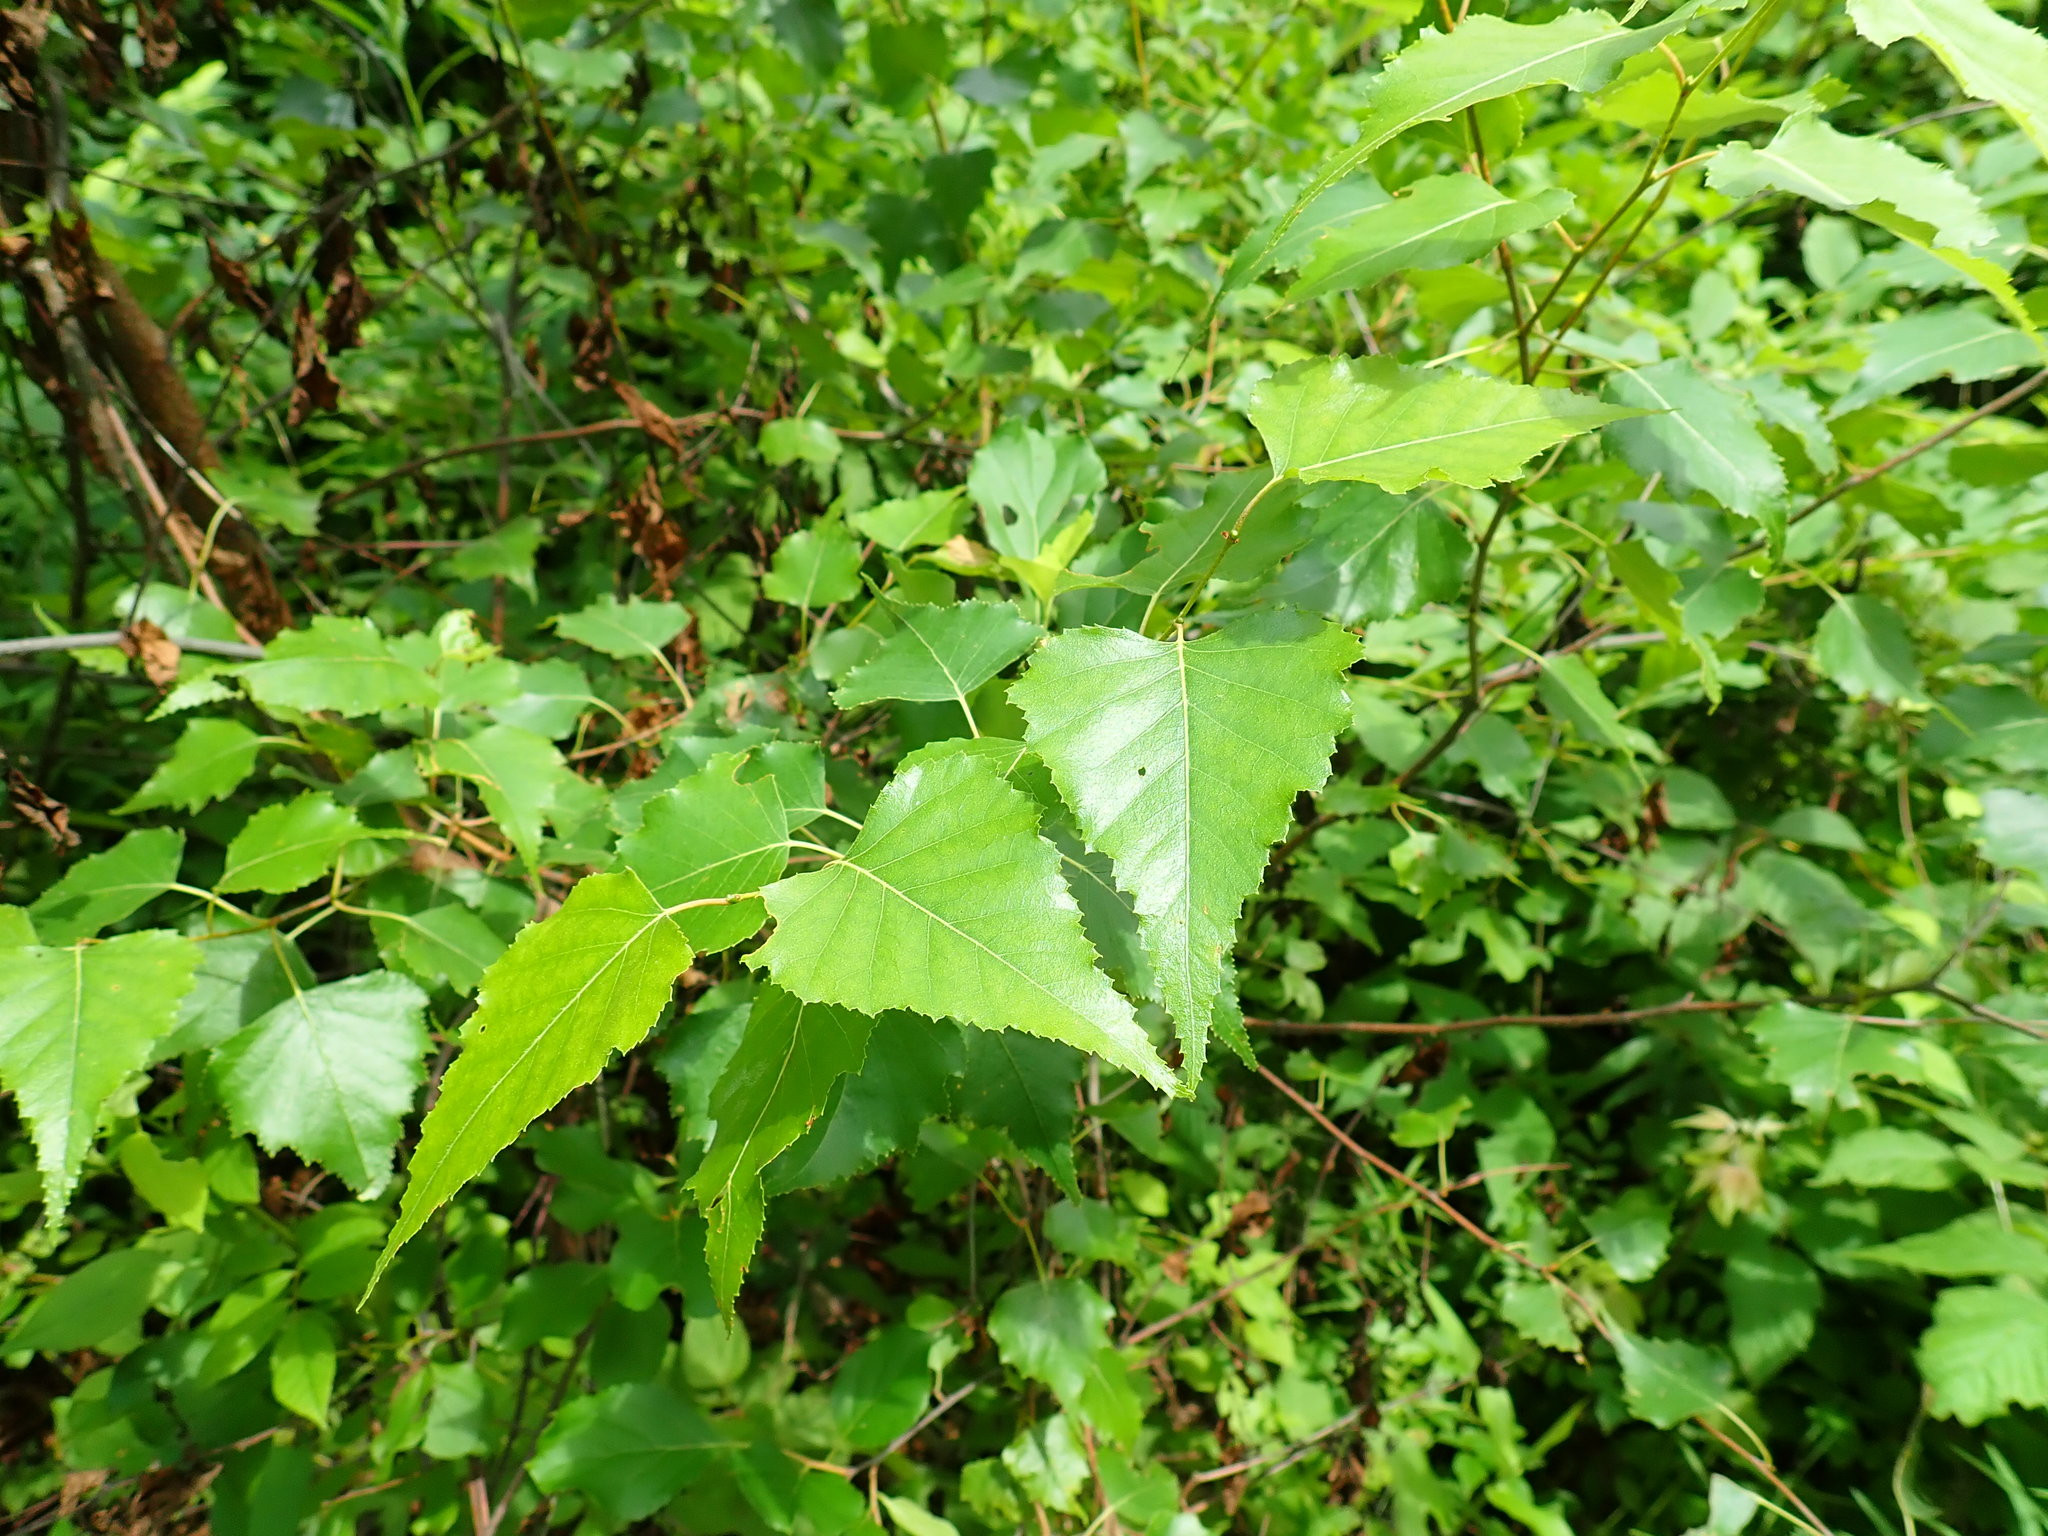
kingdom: Plantae
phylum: Tracheophyta
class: Magnoliopsida
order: Fagales
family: Betulaceae
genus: Betula
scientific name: Betula populifolia
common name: Fire birch
